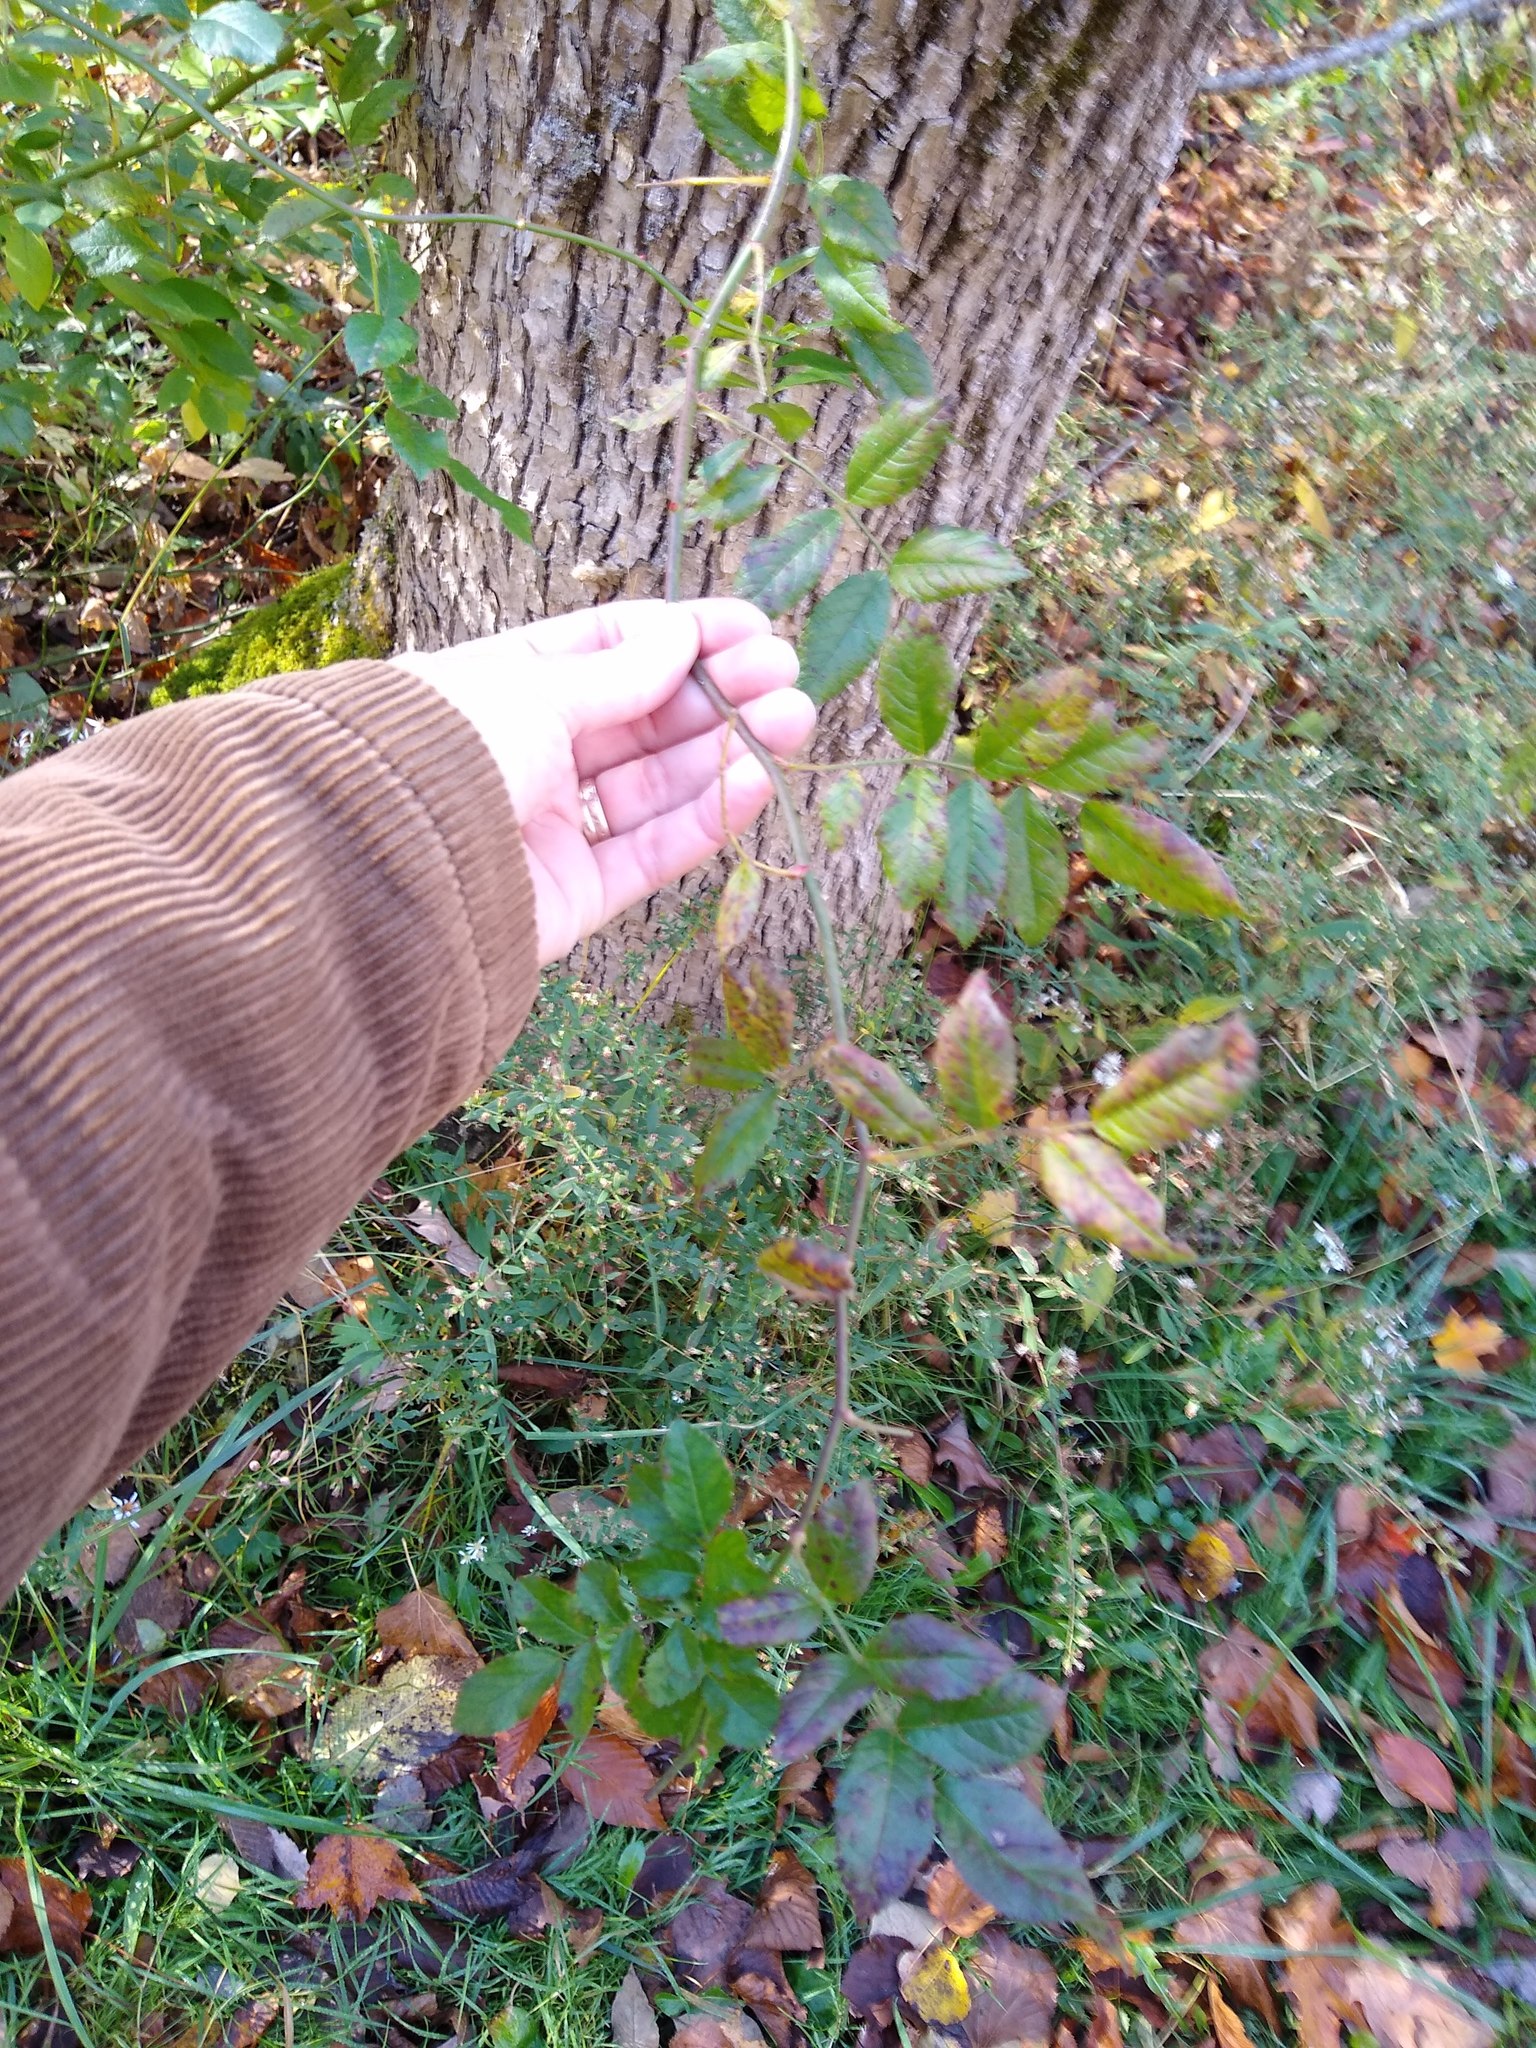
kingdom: Plantae
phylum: Tracheophyta
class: Magnoliopsida
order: Rosales
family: Rosaceae
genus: Rosa
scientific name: Rosa multiflora
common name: Multiflora rose
